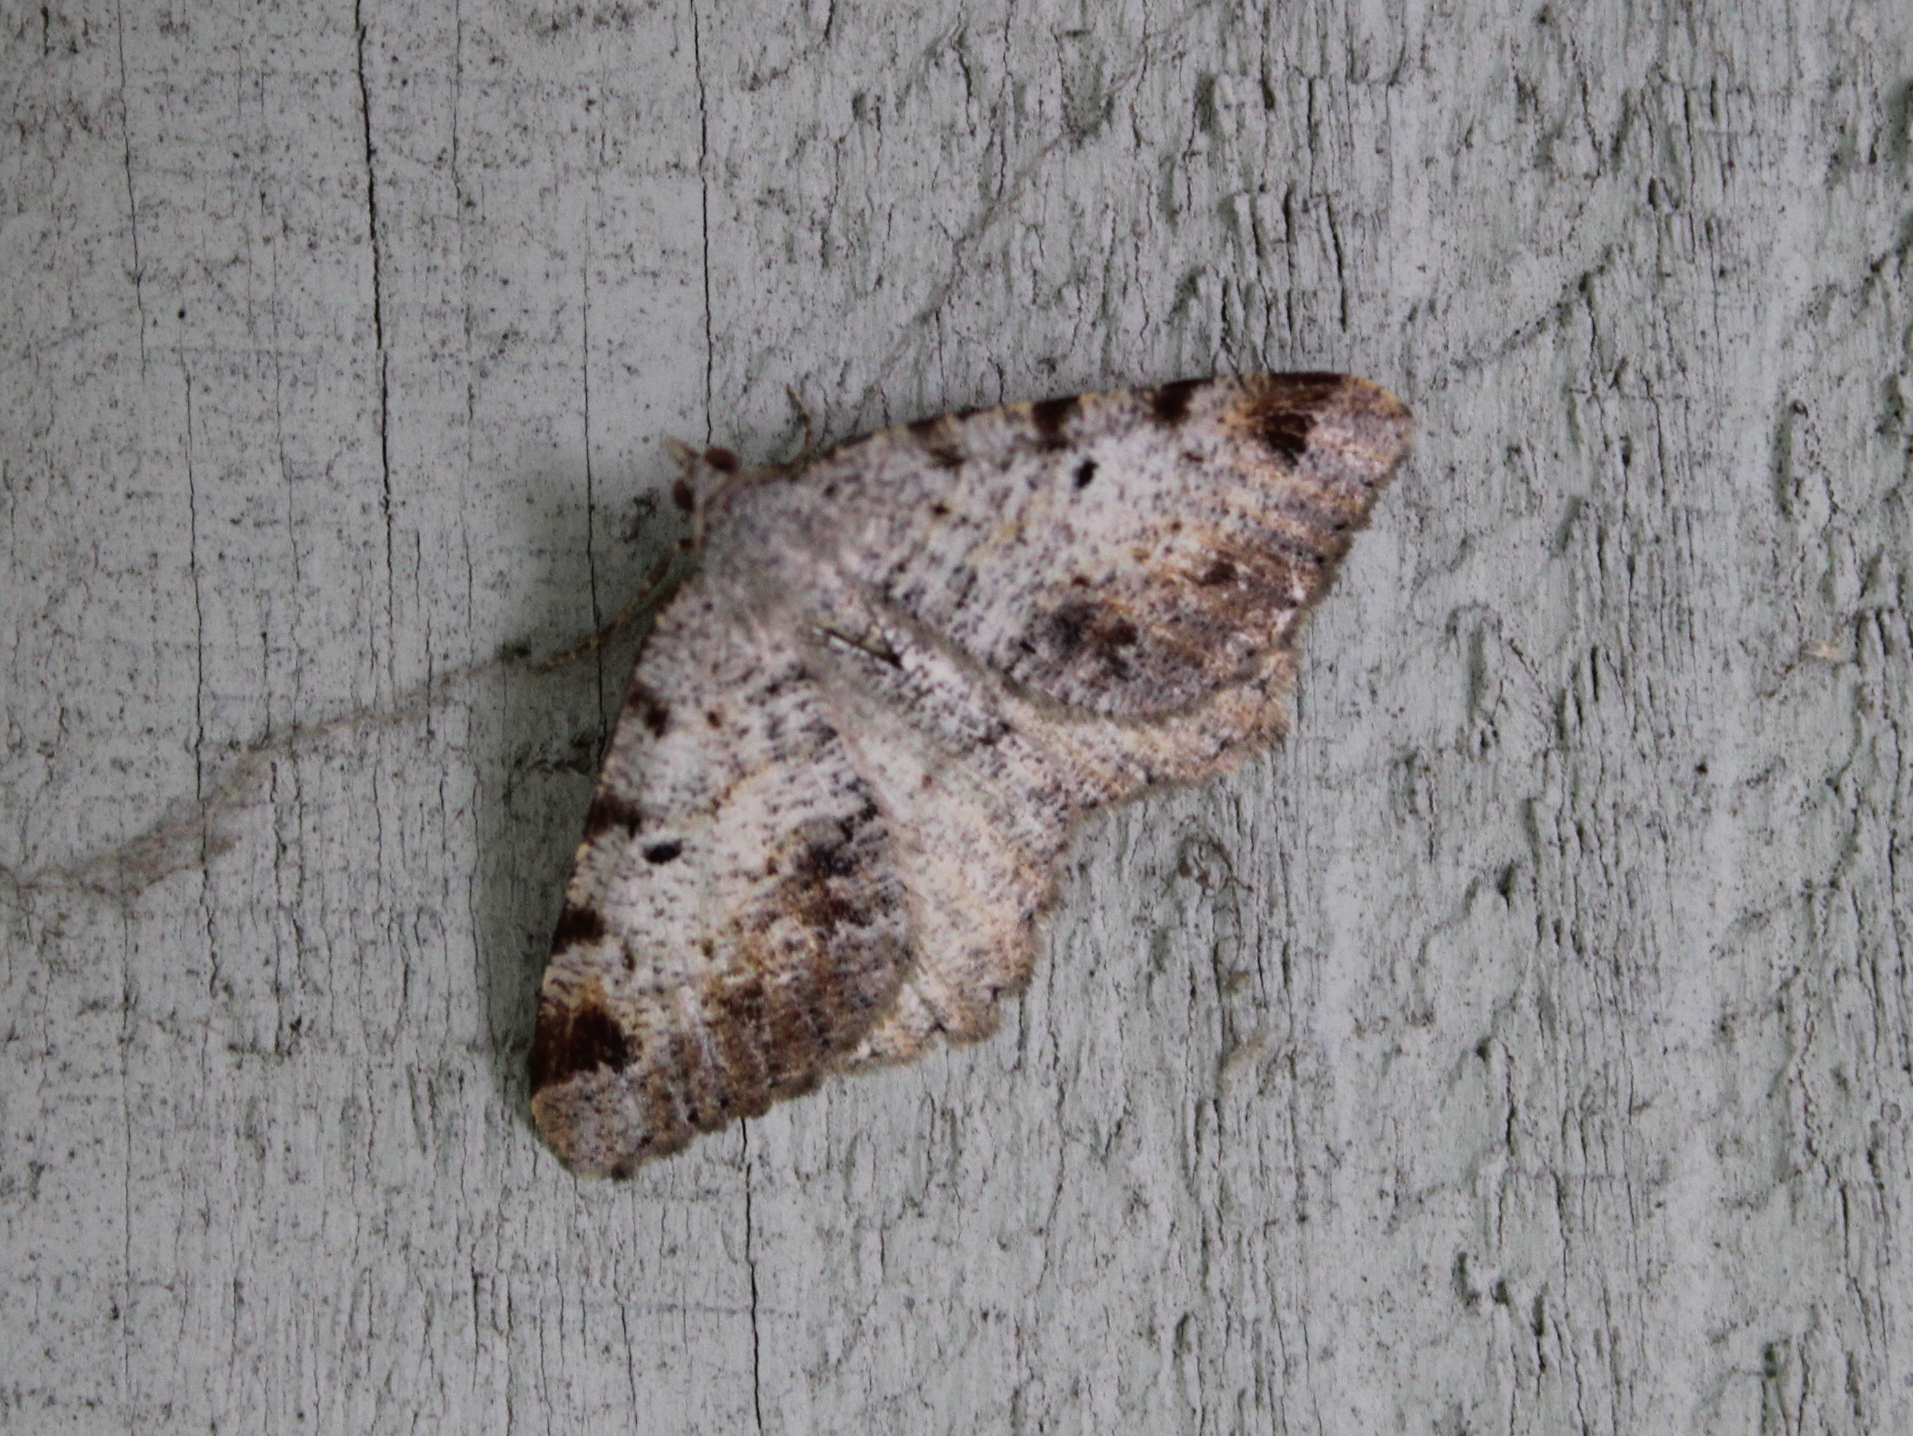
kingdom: Animalia
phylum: Arthropoda
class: Insecta
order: Lepidoptera
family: Geometridae
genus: Macaria
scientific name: Macaria exauspicata
